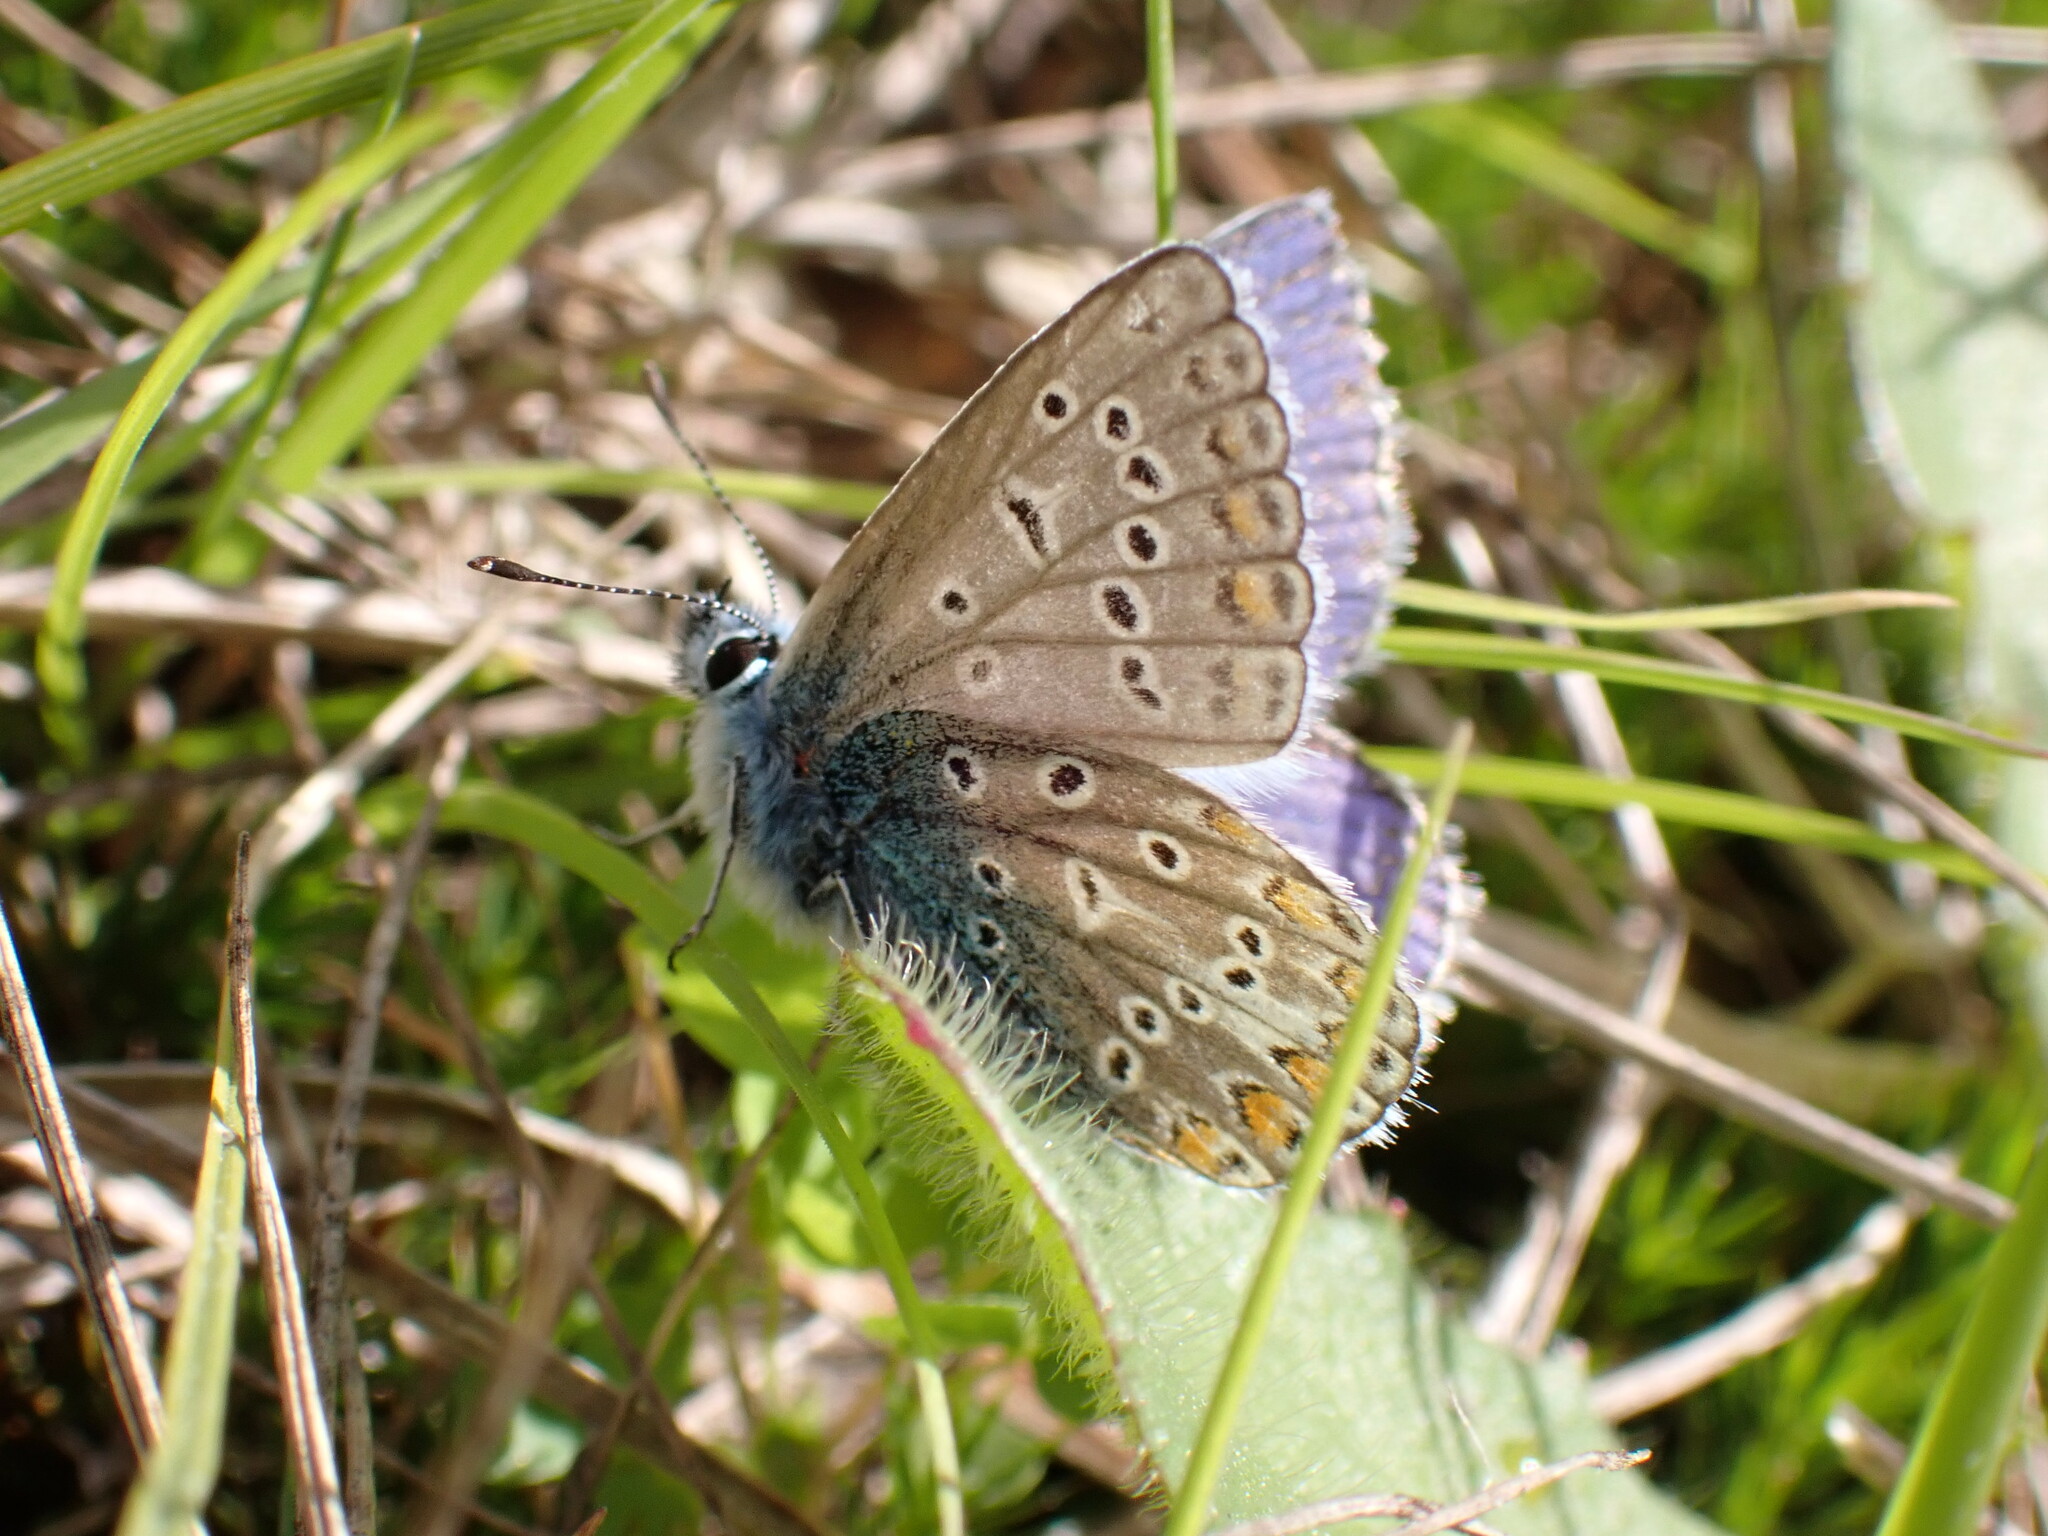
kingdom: Animalia
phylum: Arthropoda
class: Insecta
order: Lepidoptera
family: Lycaenidae
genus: Polyommatus
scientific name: Polyommatus icarus
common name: Common blue
